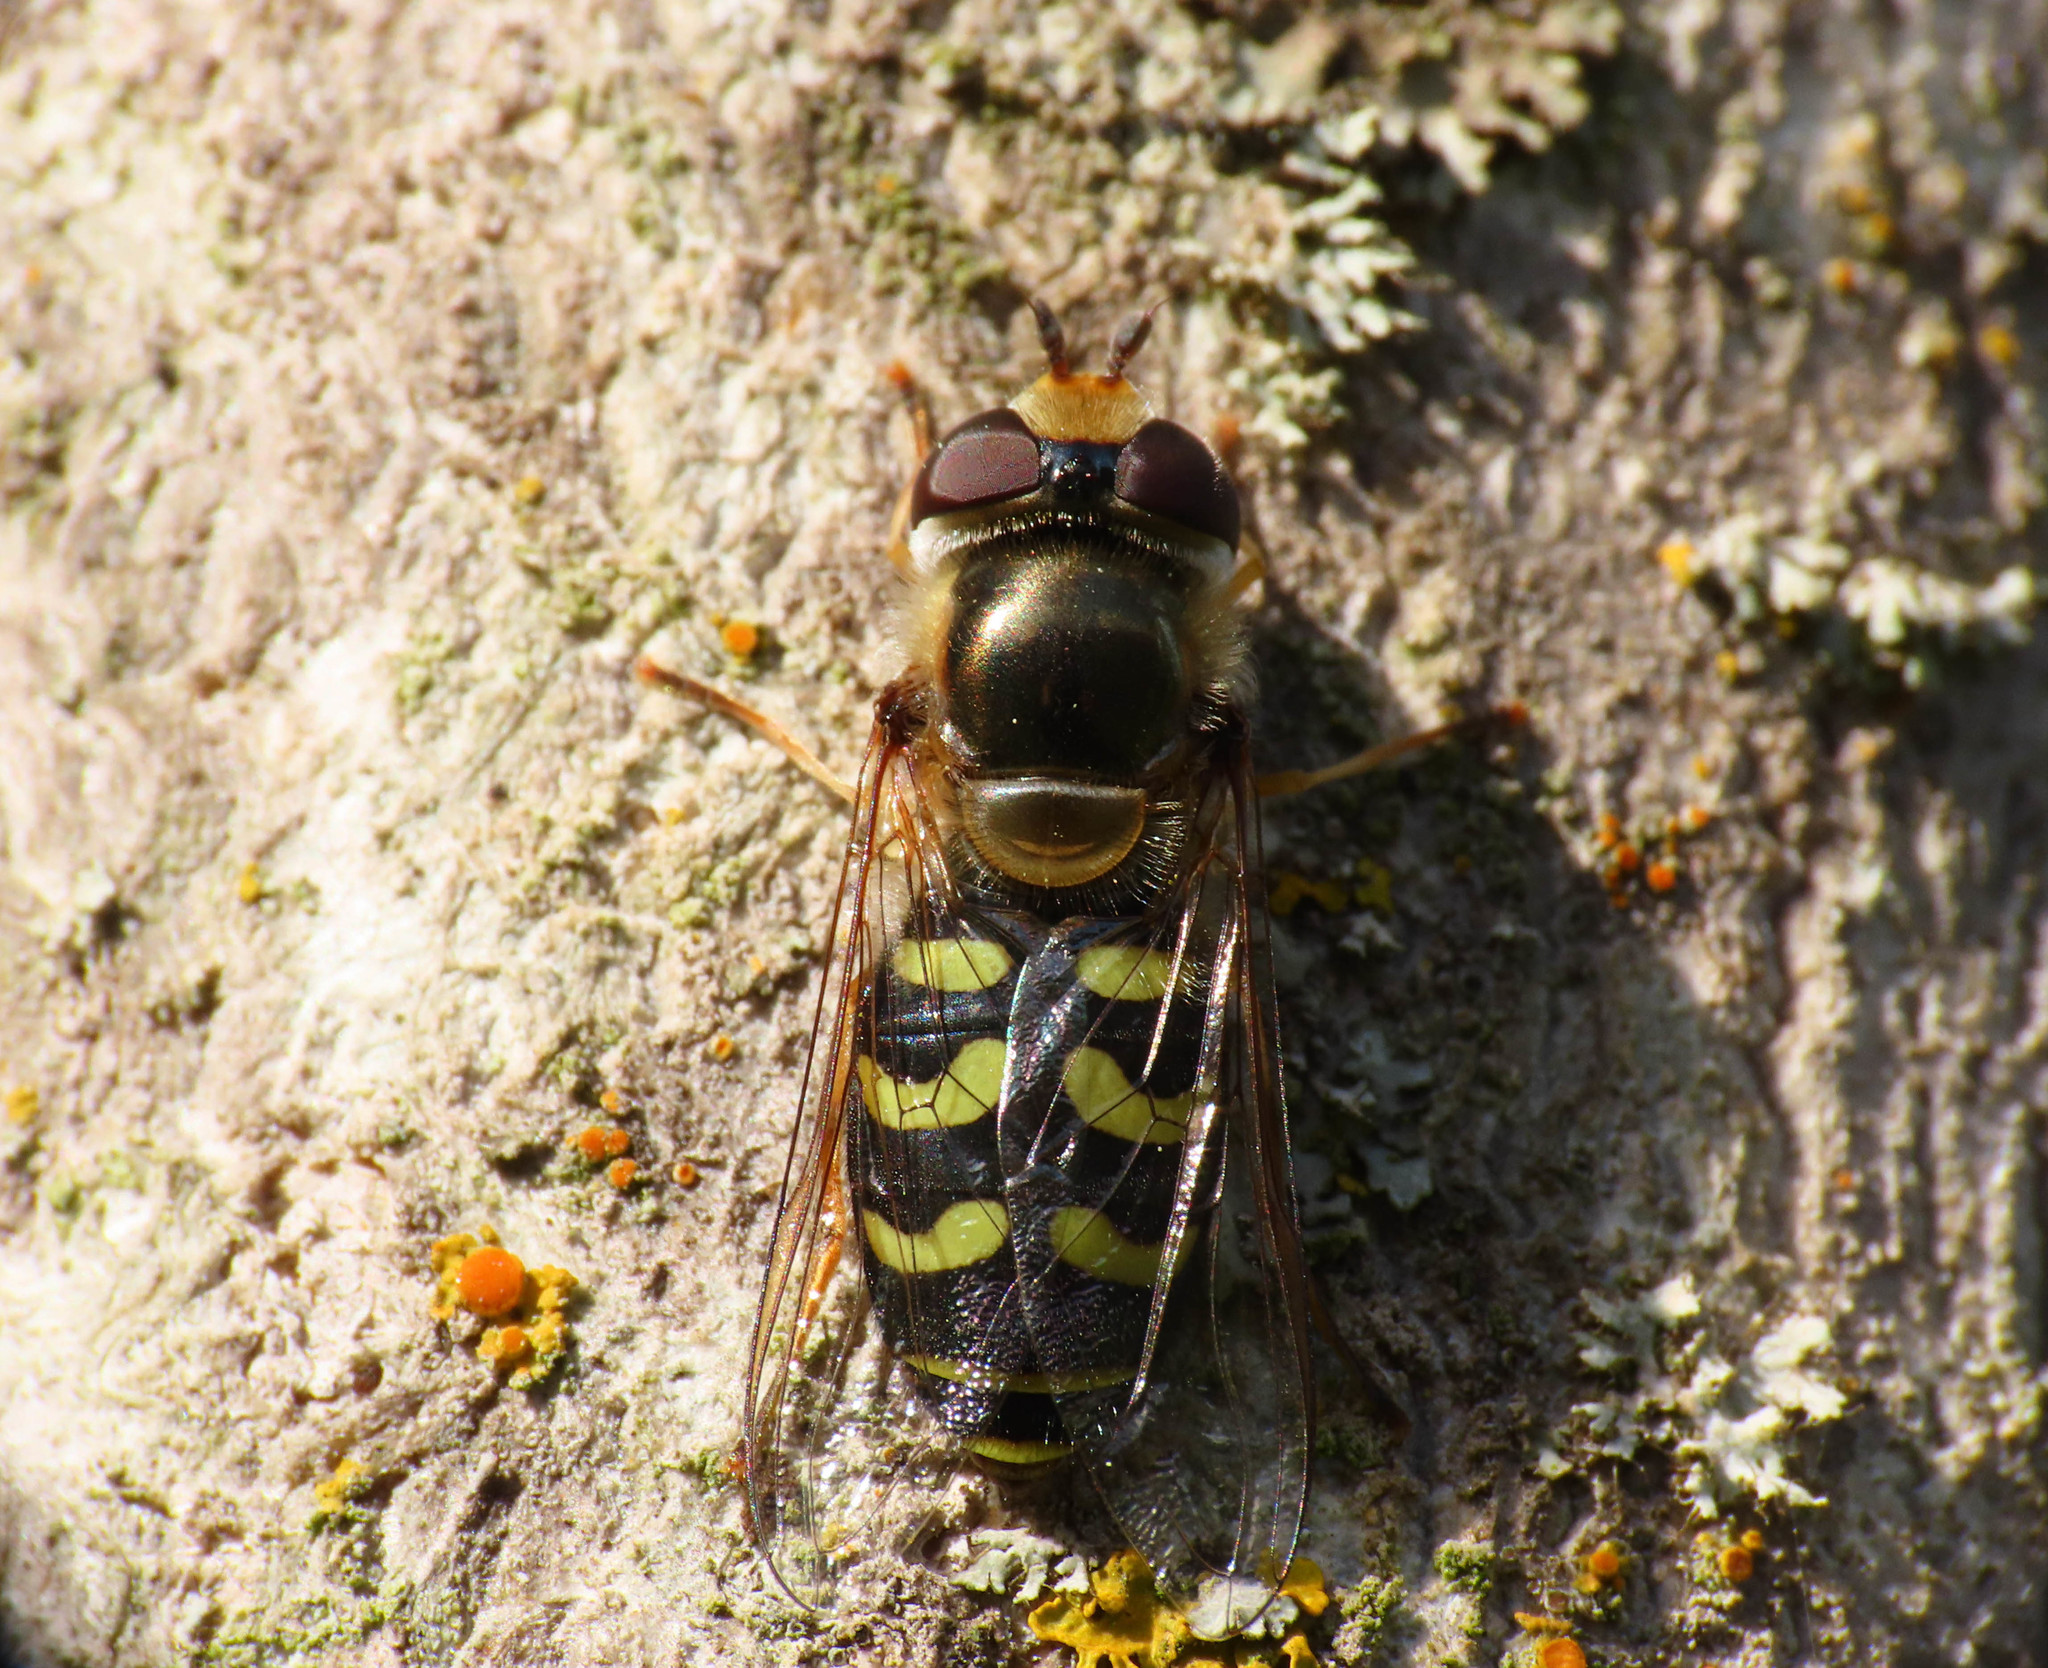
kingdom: Animalia
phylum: Arthropoda
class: Insecta
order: Diptera
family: Syrphidae
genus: Scaeva
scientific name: Scaeva dignota
